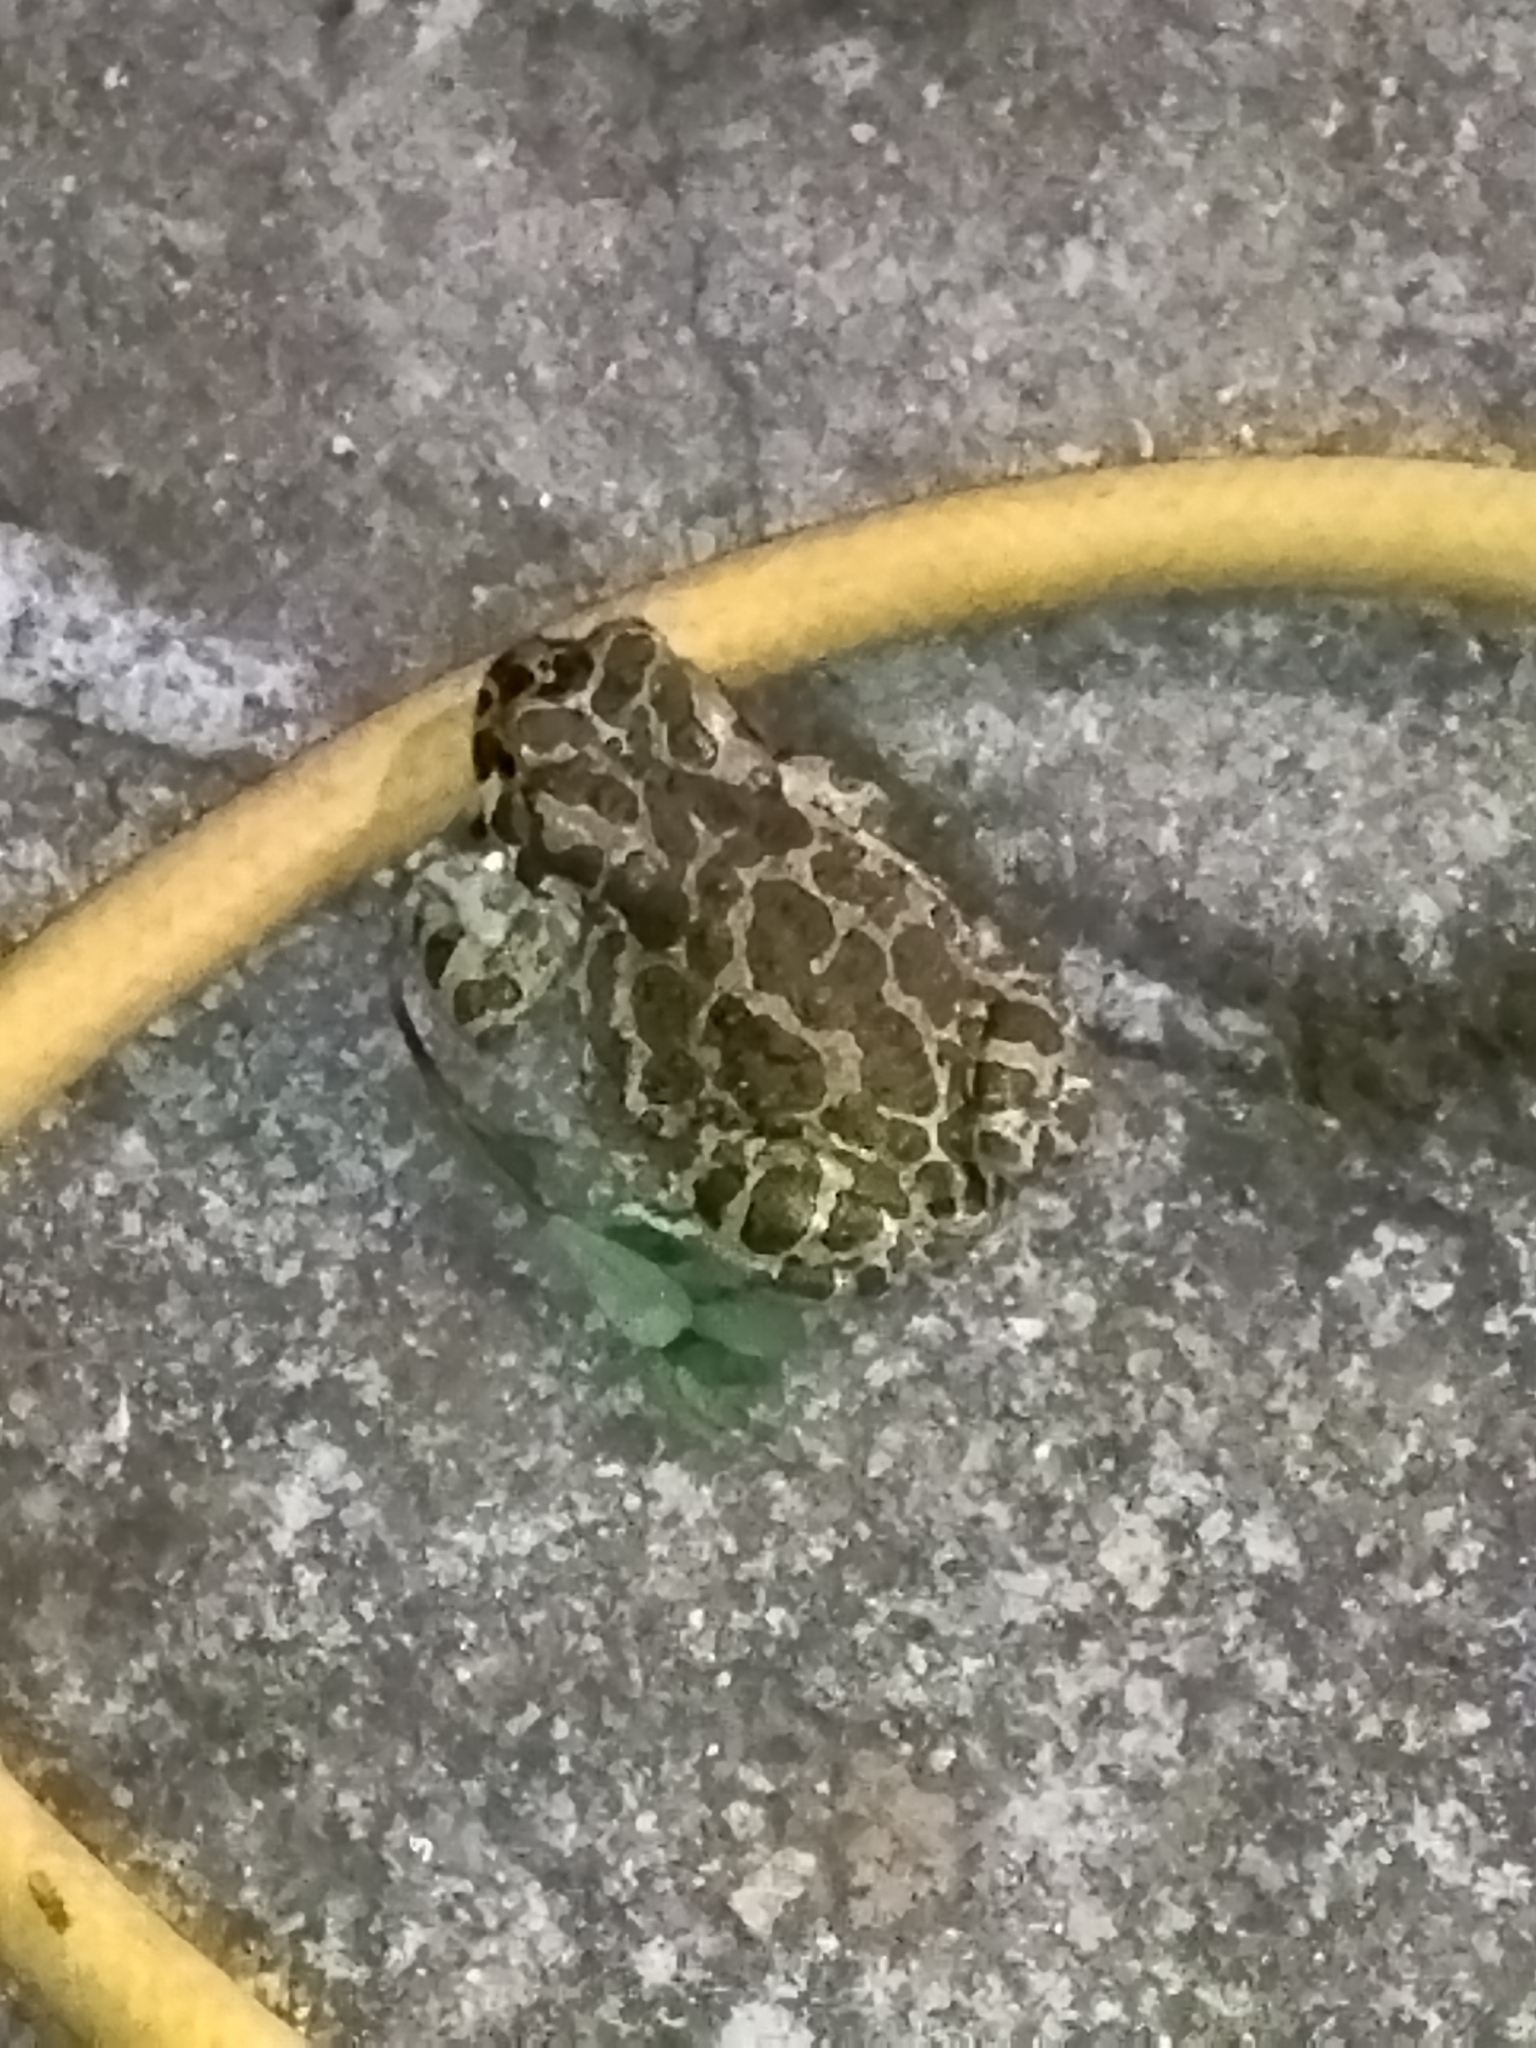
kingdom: Animalia
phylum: Chordata
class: Amphibia
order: Anura
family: Bufonidae
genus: Bufotes
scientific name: Bufotes viridis
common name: European green toad
